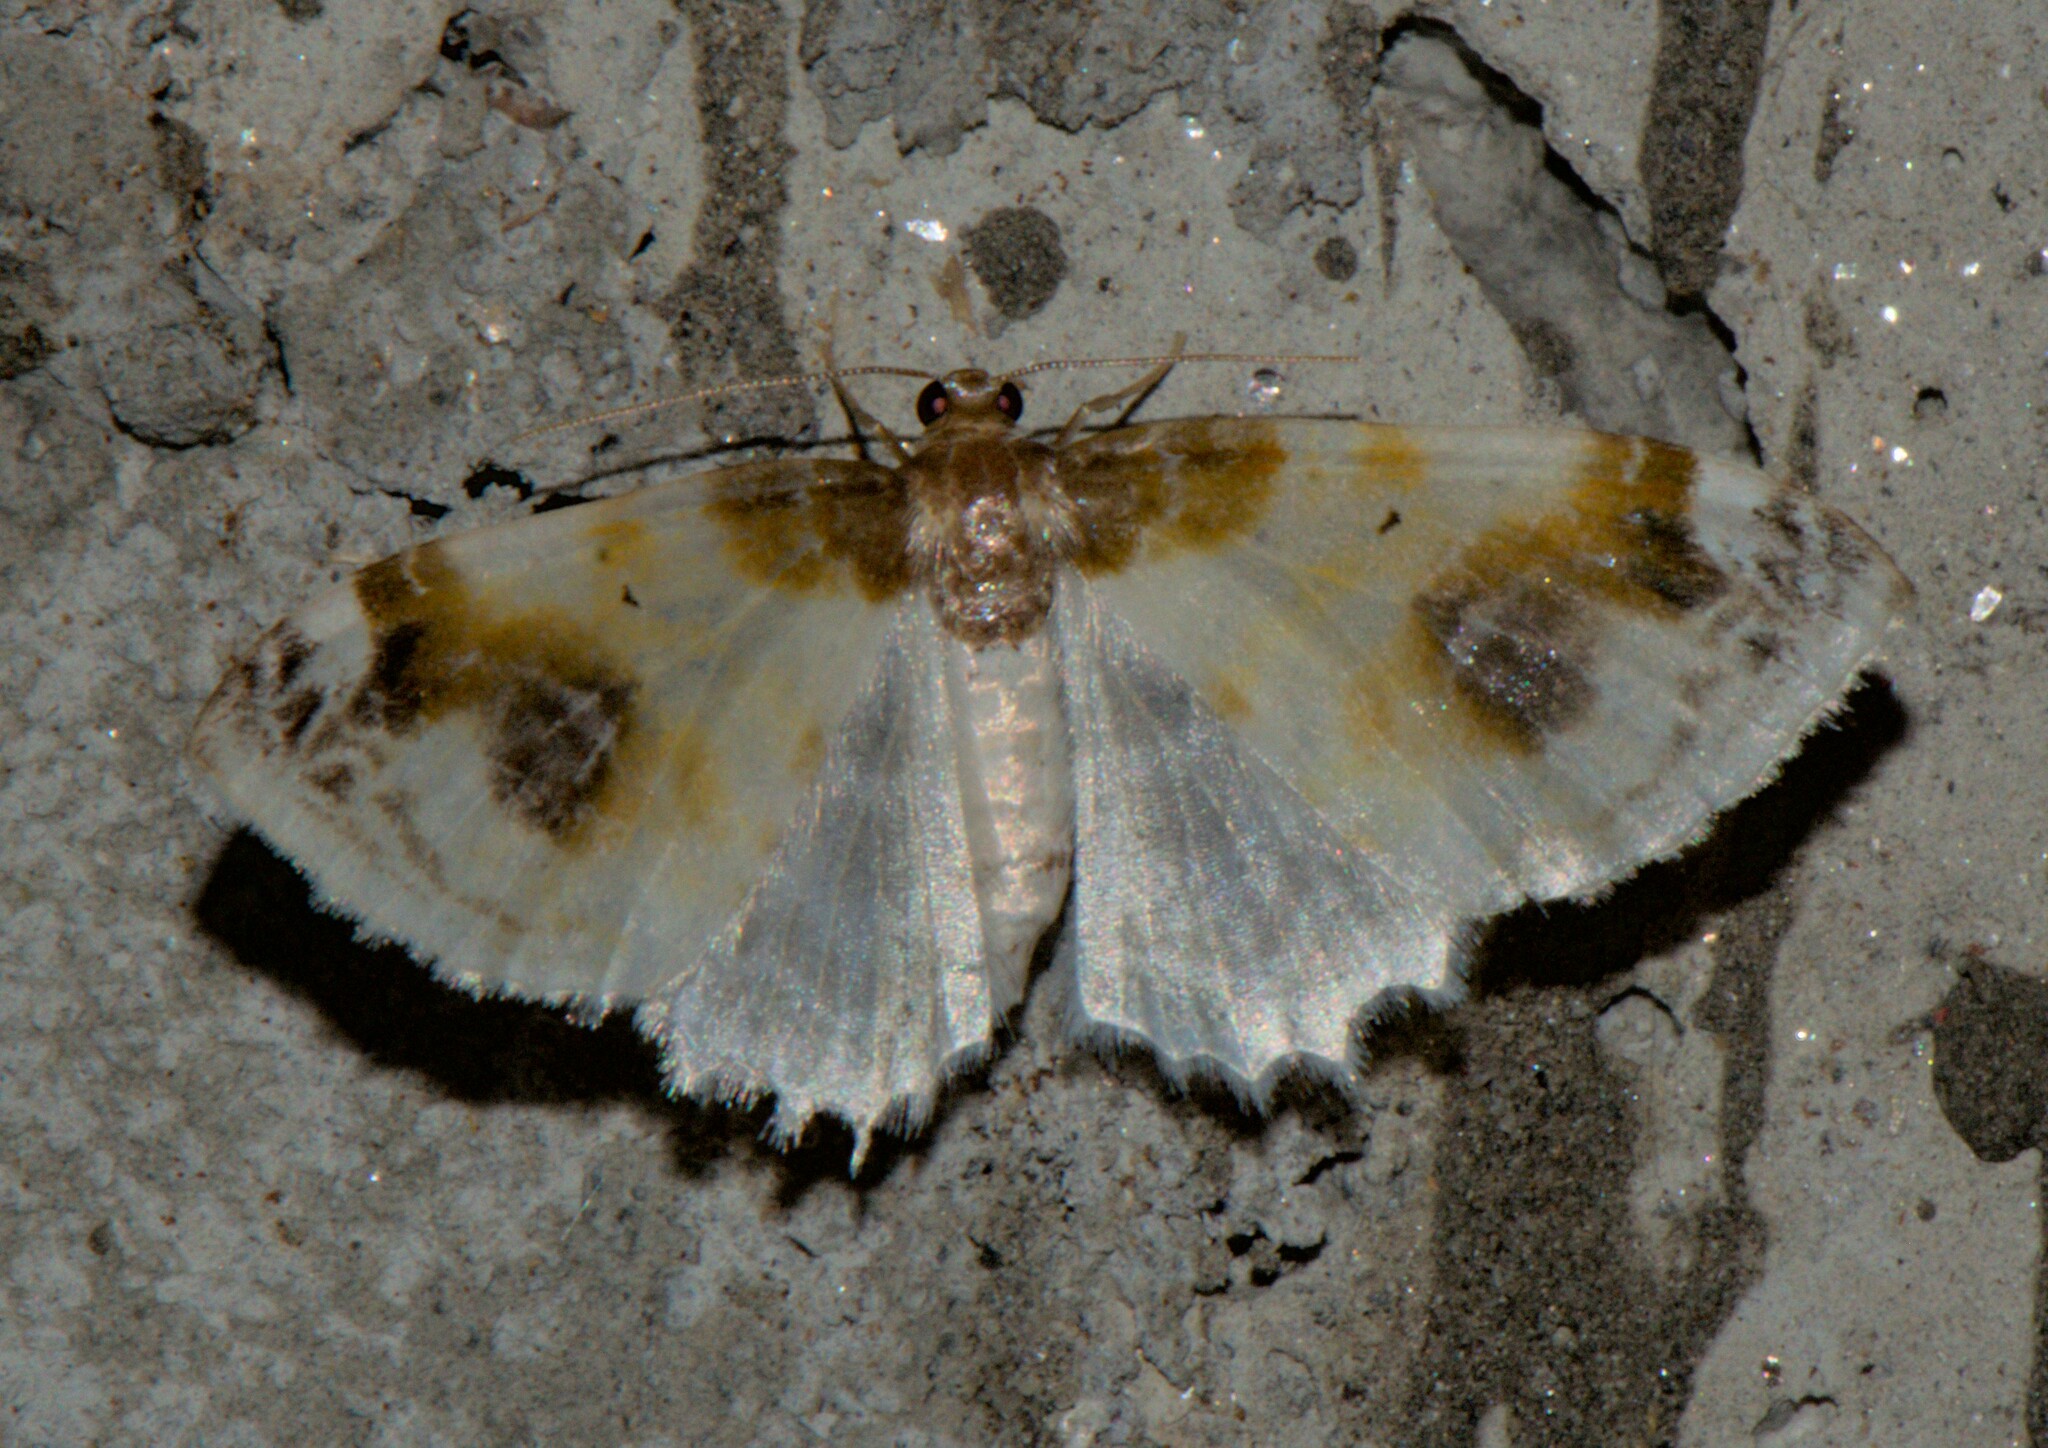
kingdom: Animalia
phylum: Arthropoda
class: Insecta
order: Lepidoptera
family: Geometridae
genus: Agnibesa
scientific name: Agnibesa pictaria
